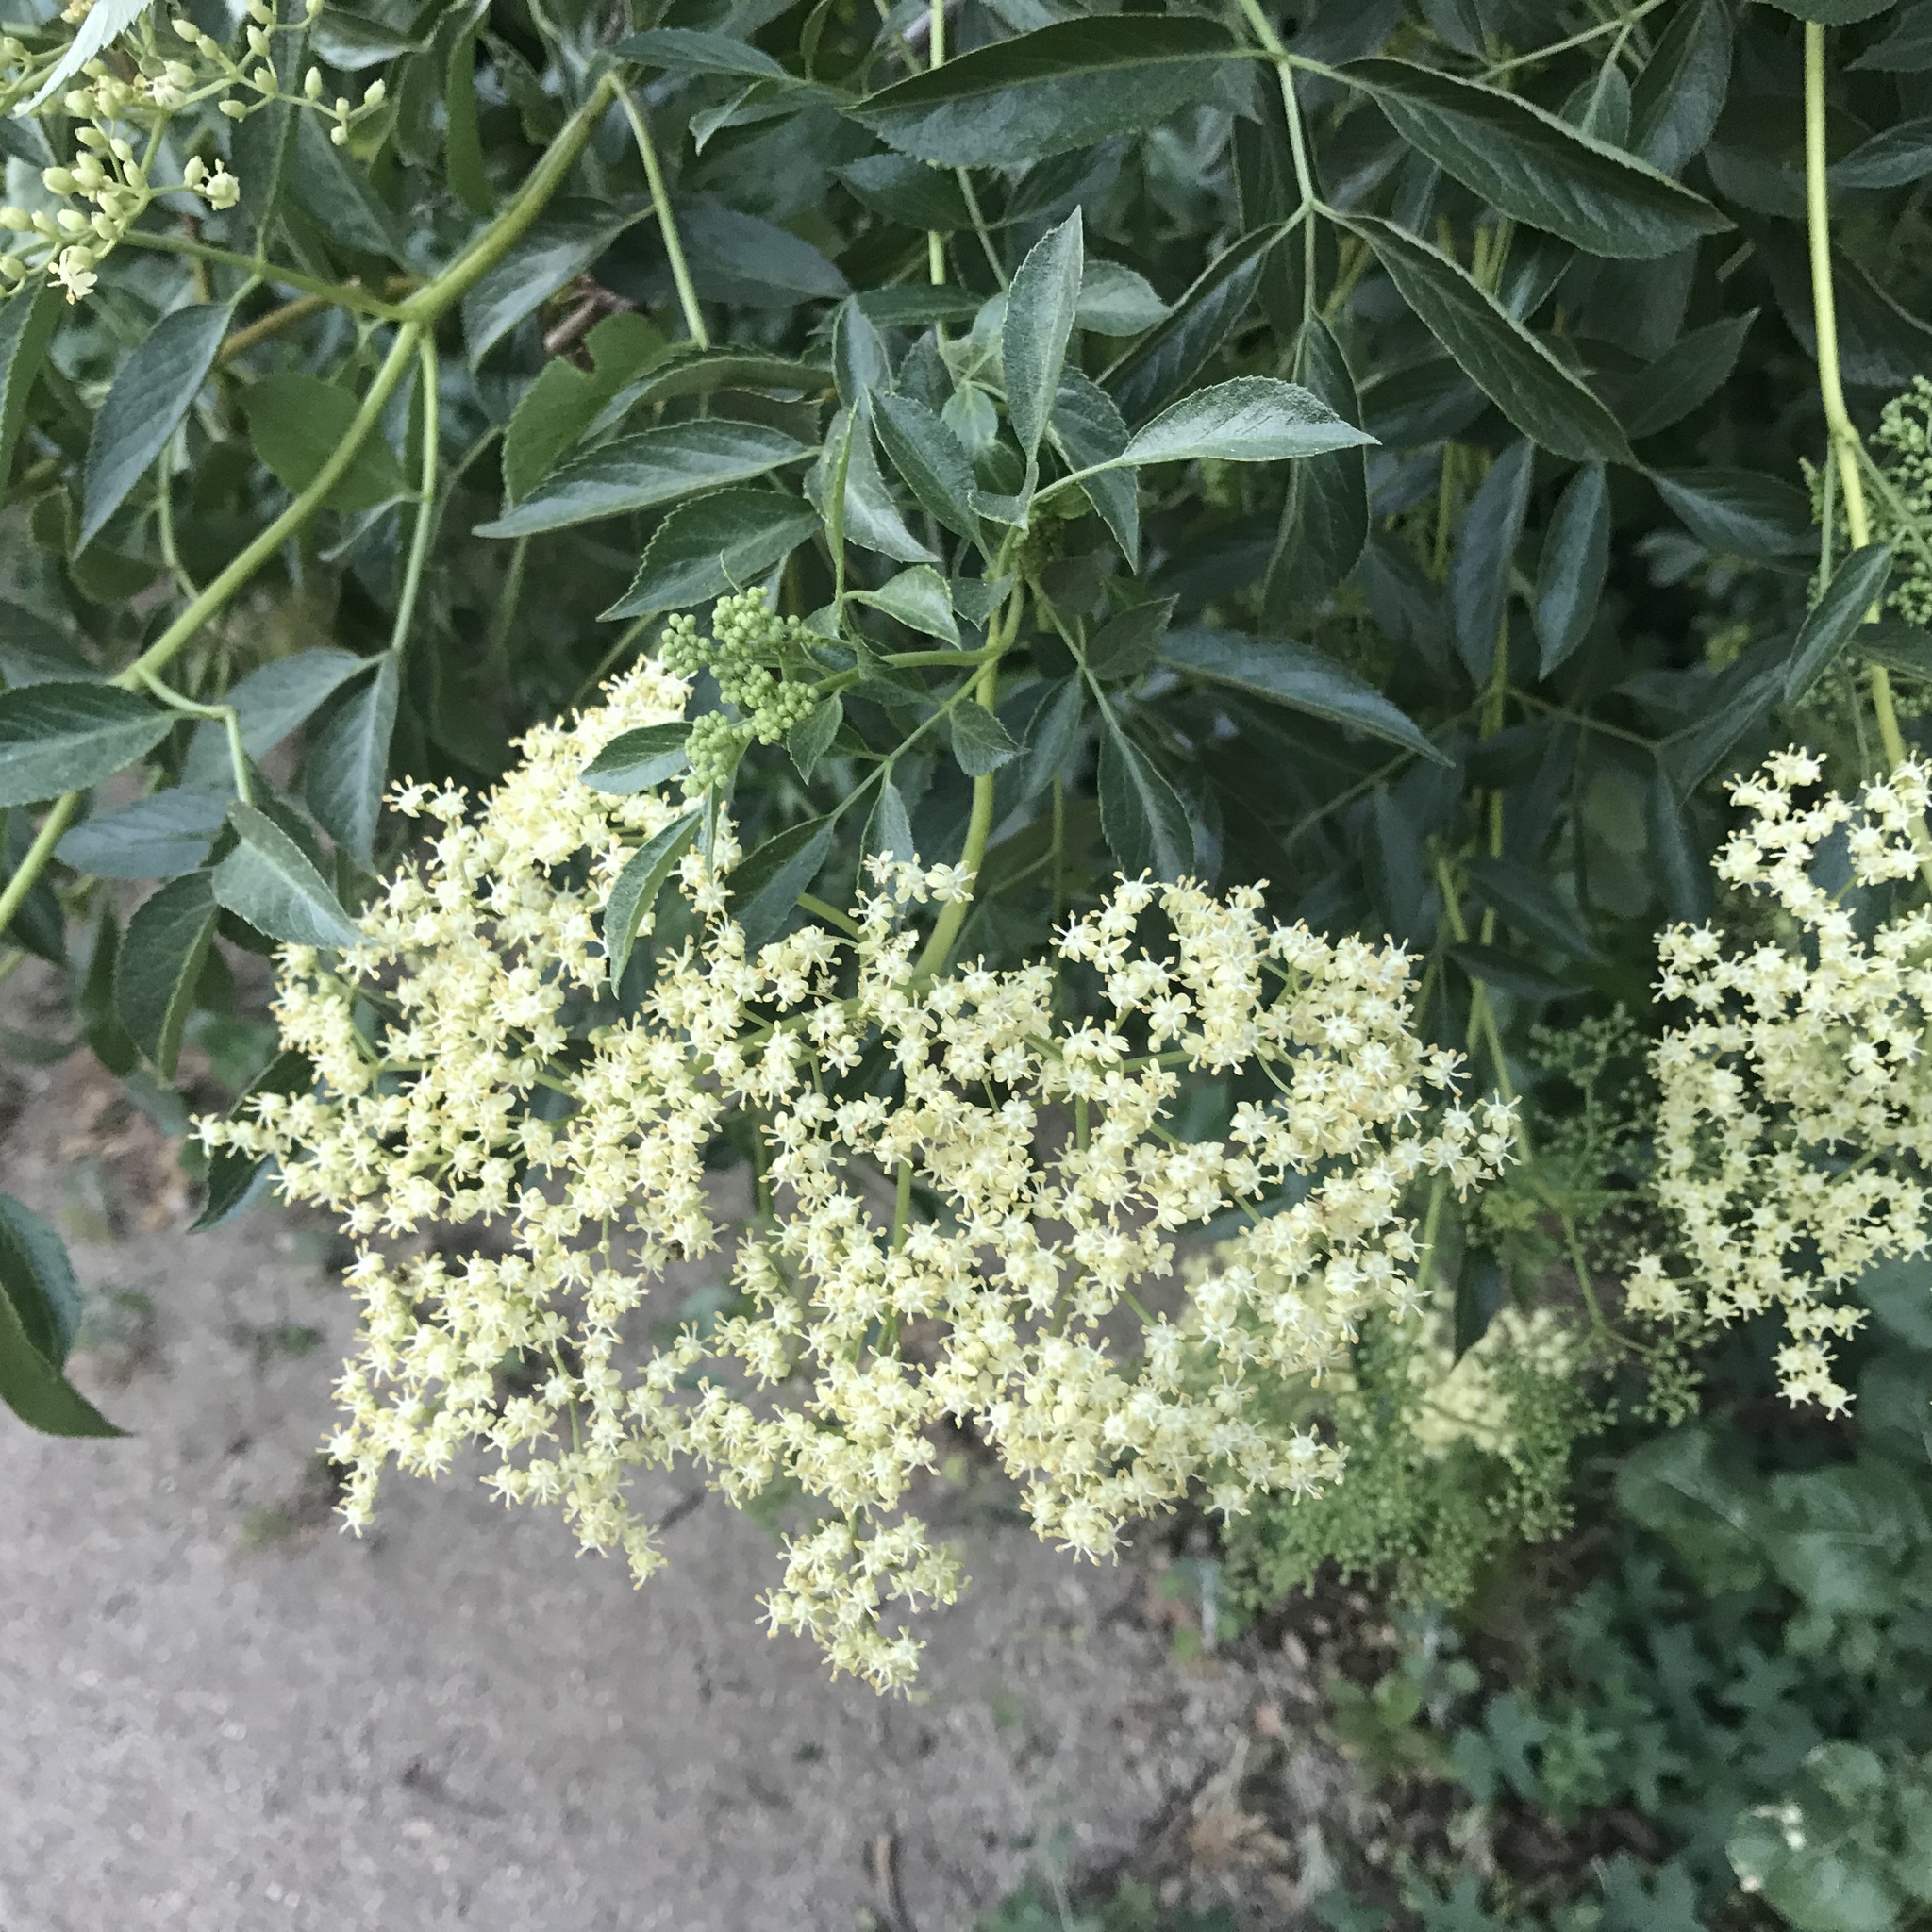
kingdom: Plantae
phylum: Tracheophyta
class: Magnoliopsida
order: Dipsacales
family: Viburnaceae
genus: Sambucus
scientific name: Sambucus cerulea
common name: Blue elder
